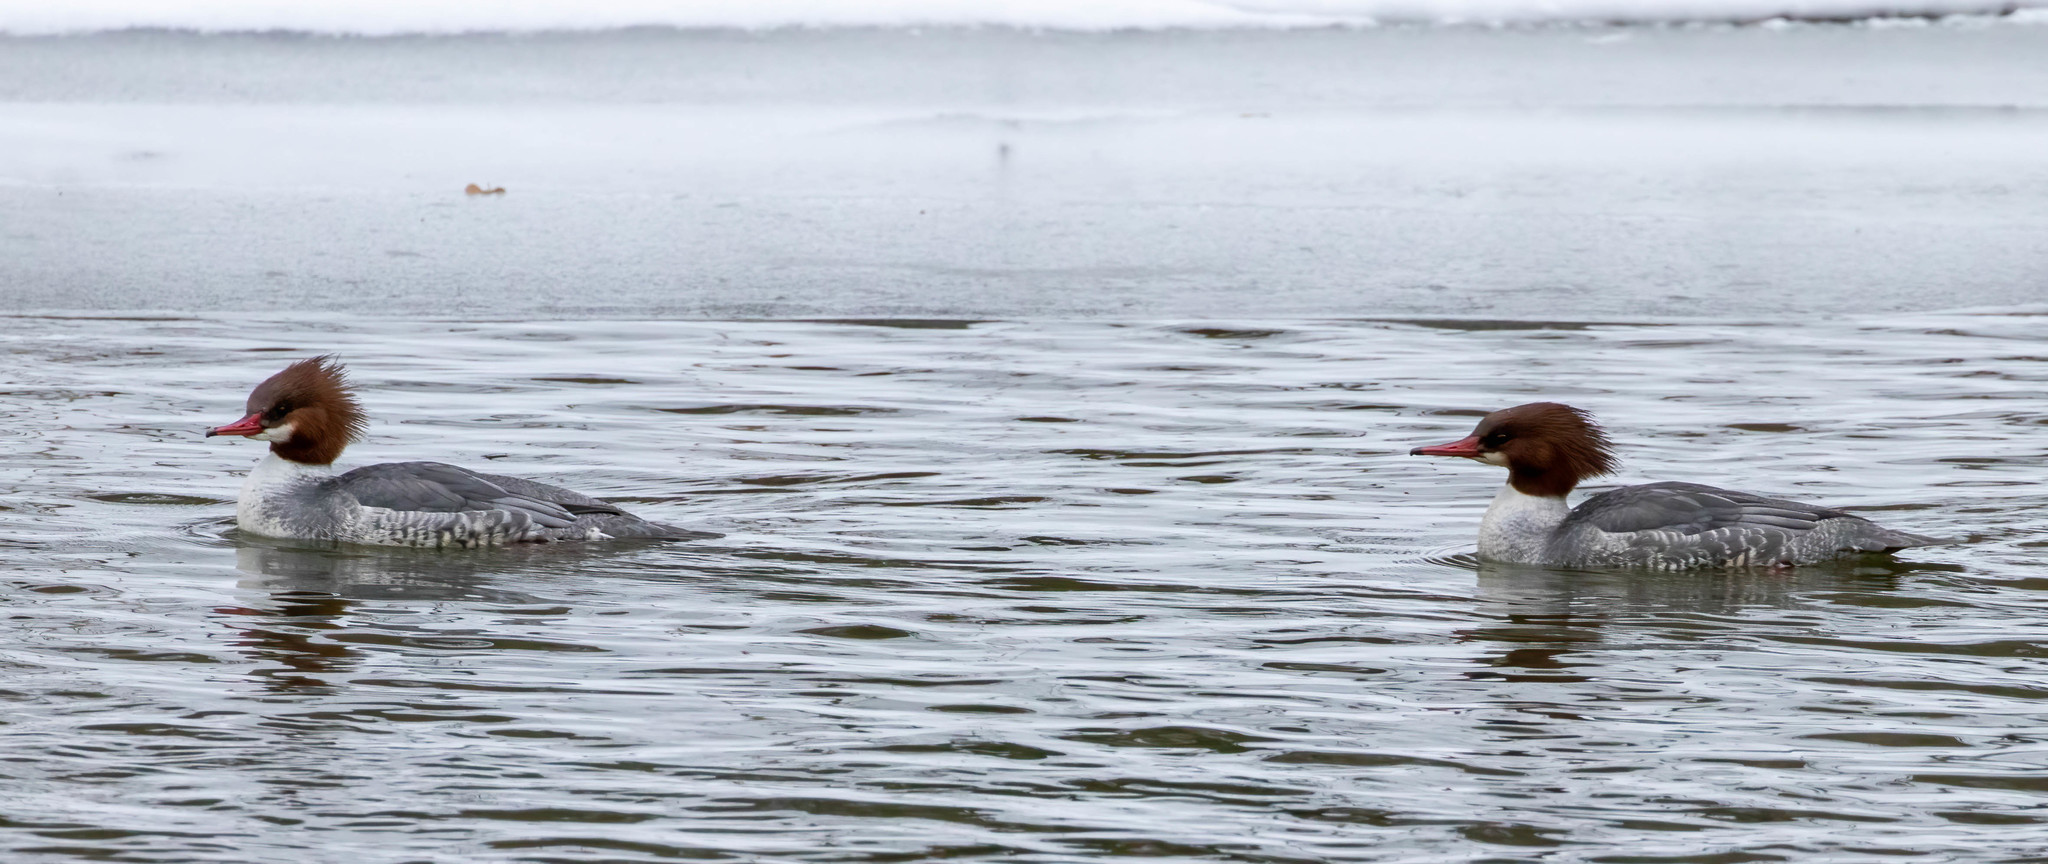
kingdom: Animalia
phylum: Chordata
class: Aves
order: Anseriformes
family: Anatidae
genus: Mergus
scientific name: Mergus merganser
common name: Common merganser
